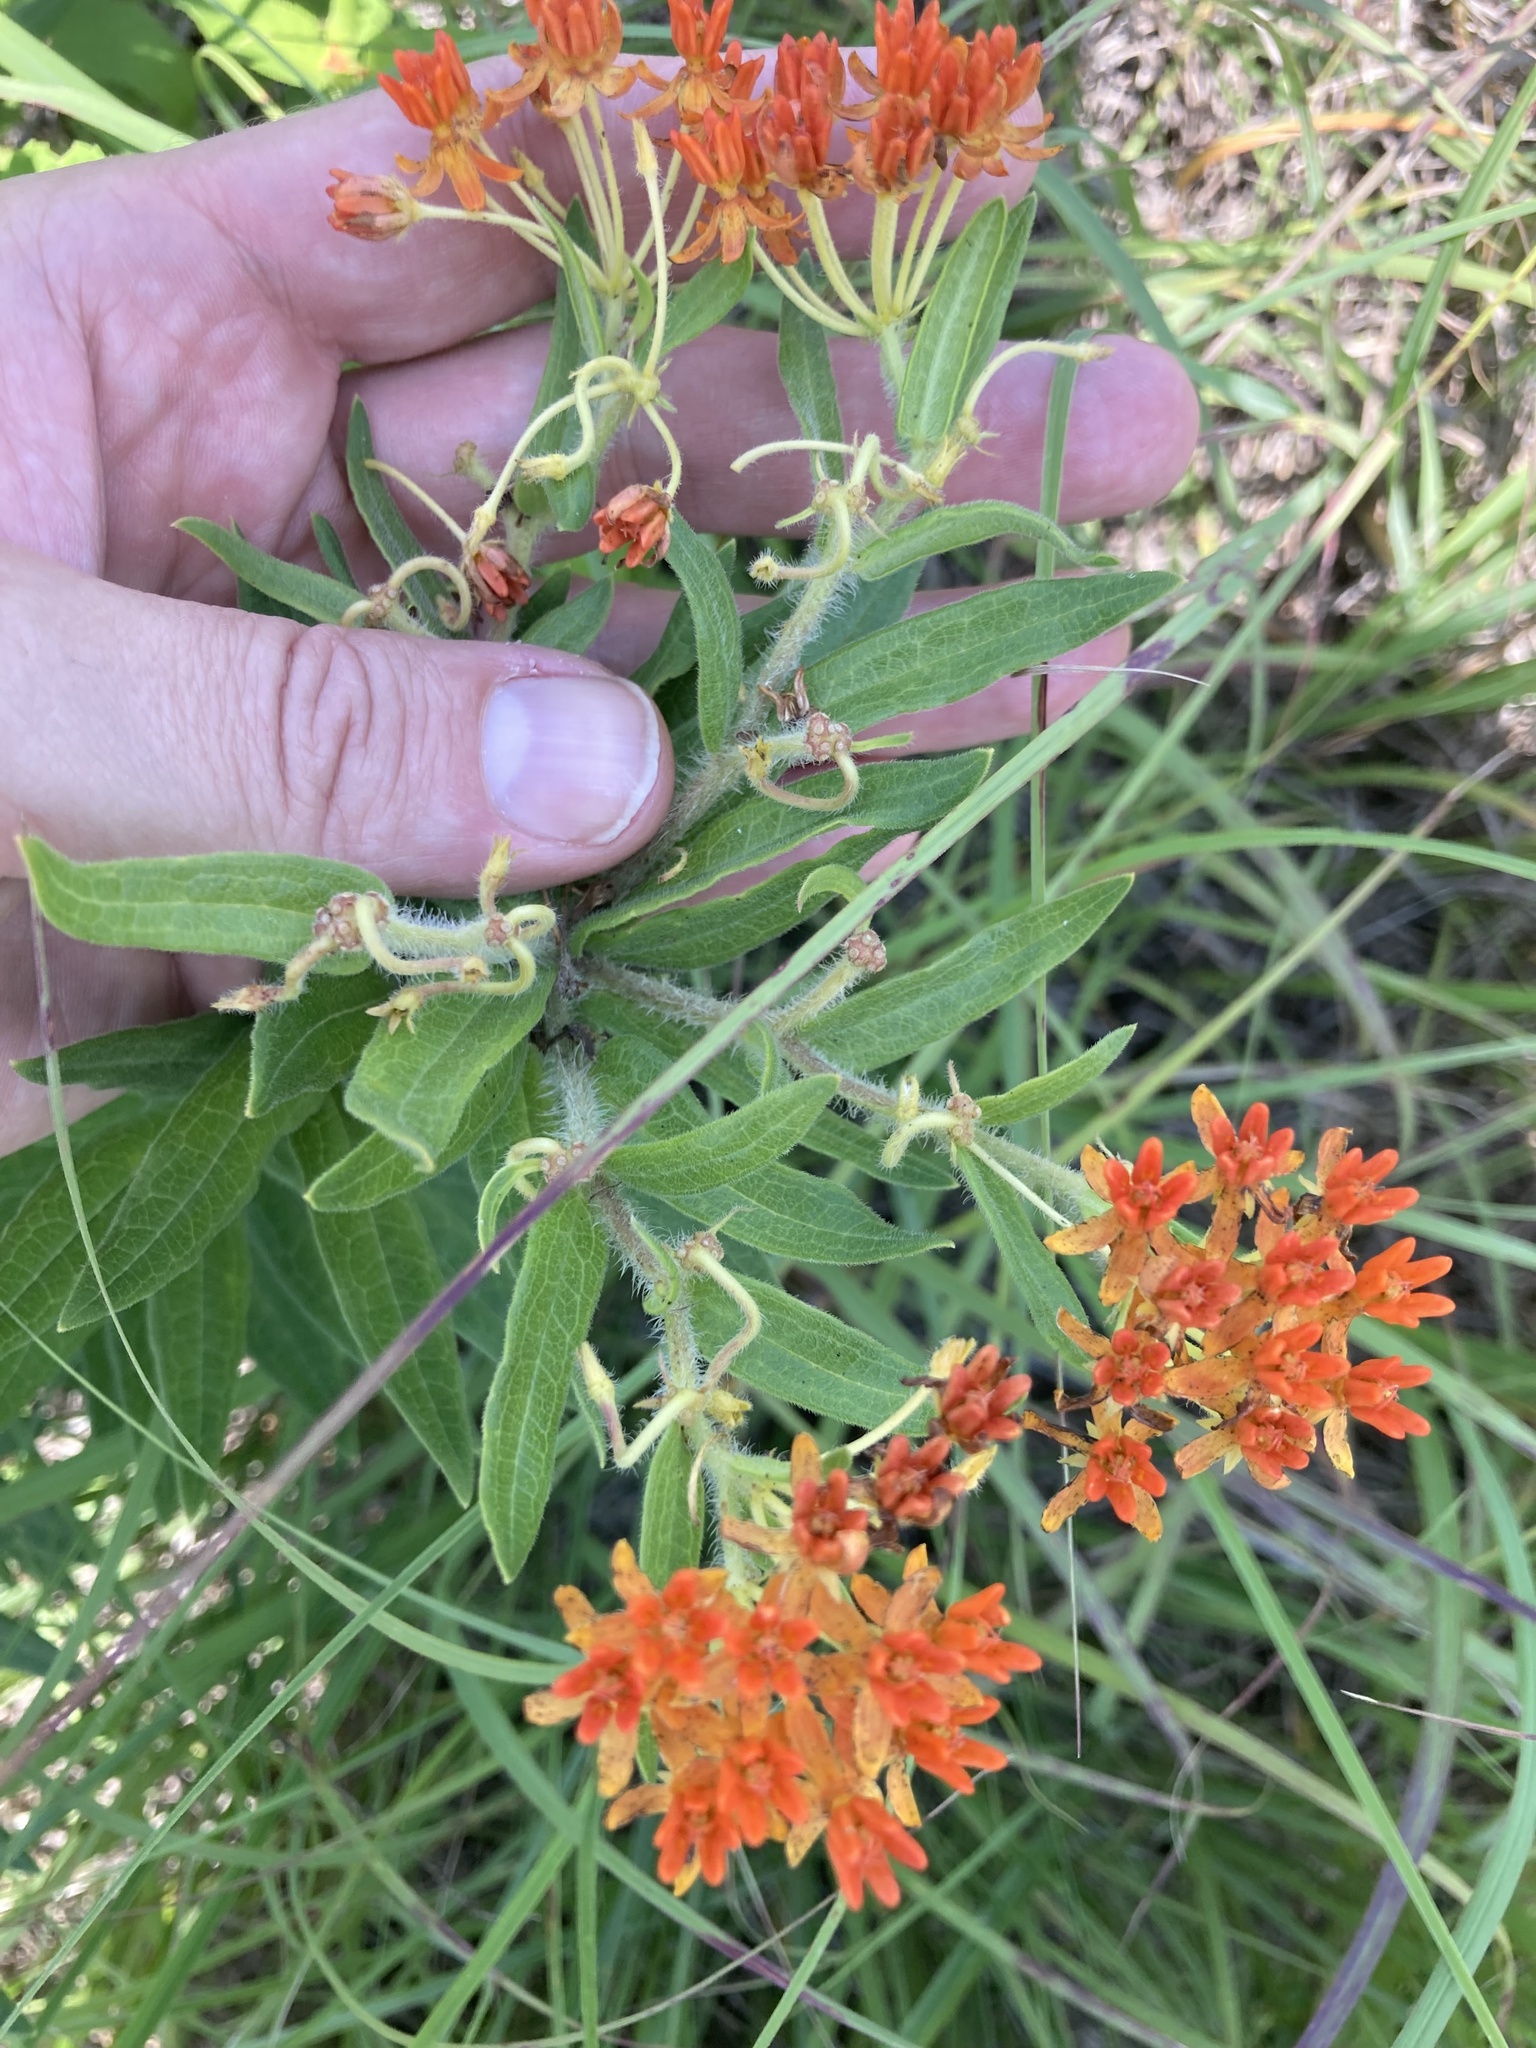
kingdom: Plantae
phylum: Tracheophyta
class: Magnoliopsida
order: Gentianales
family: Apocynaceae
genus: Asclepias
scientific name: Asclepias tuberosa
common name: Butterfly milkweed
